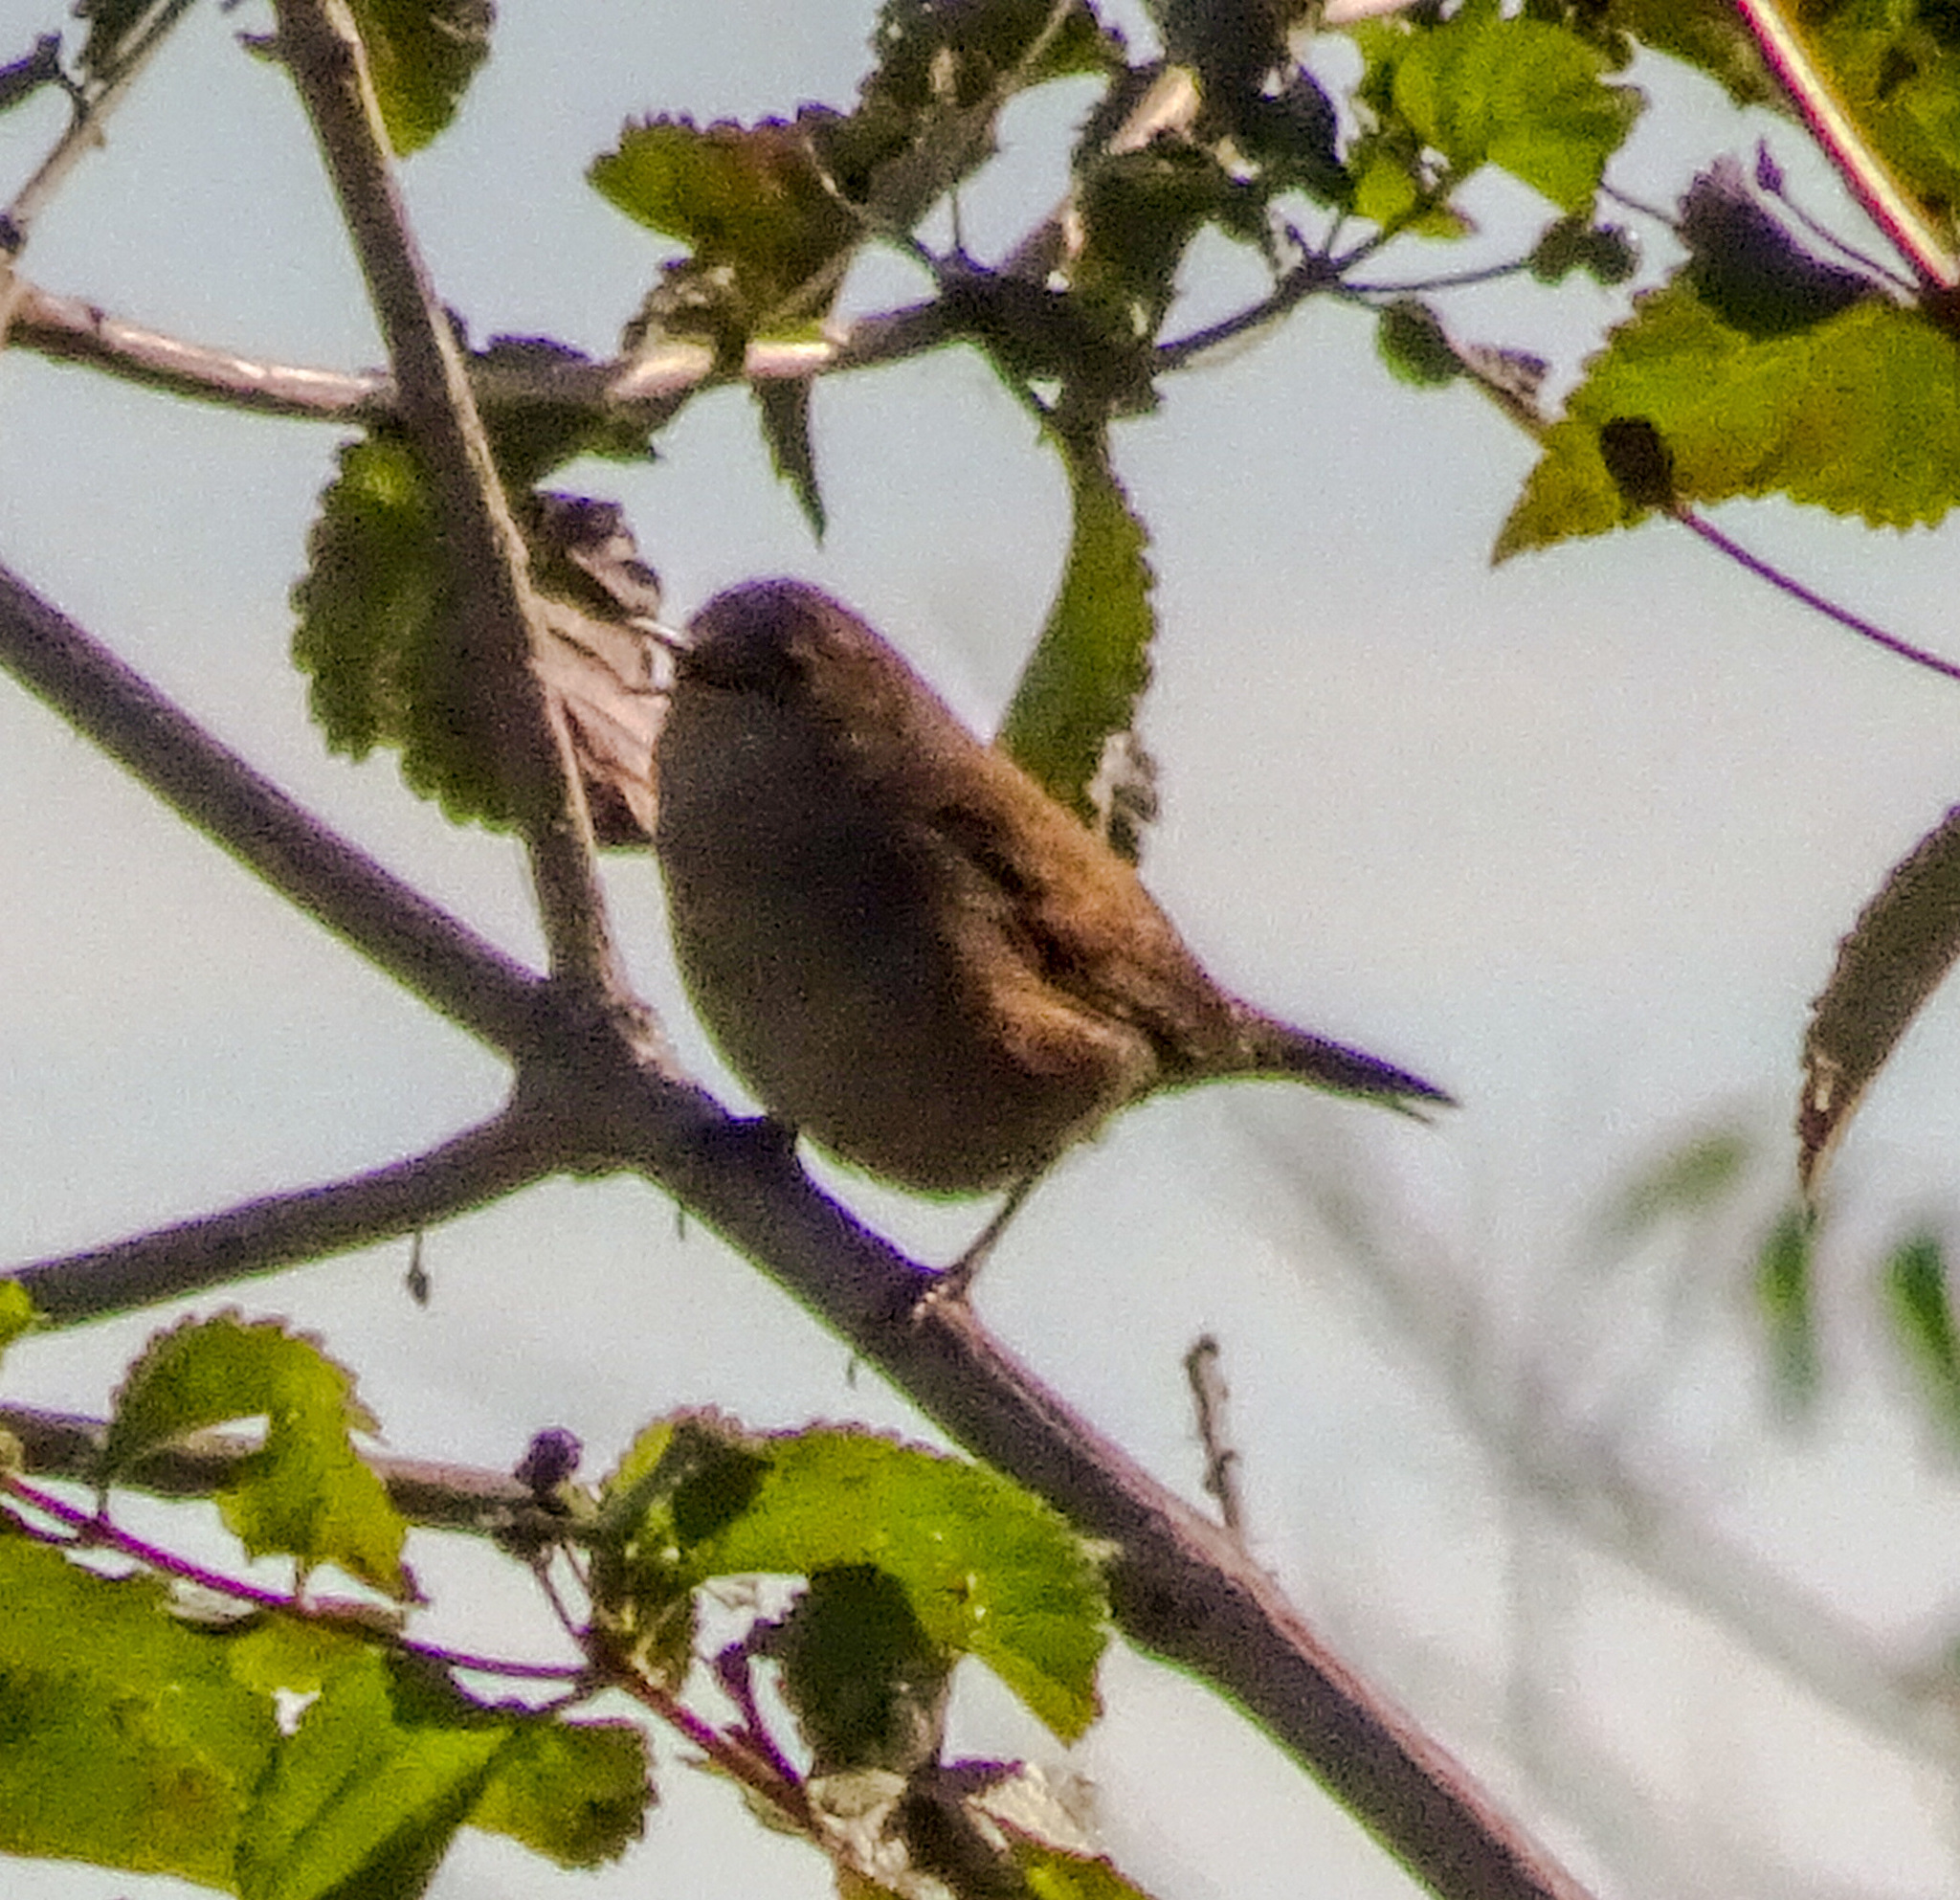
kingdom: Animalia
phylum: Chordata
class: Aves
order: Passeriformes
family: Troglodytidae
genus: Troglodytes
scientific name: Troglodytes aedon
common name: House wren
